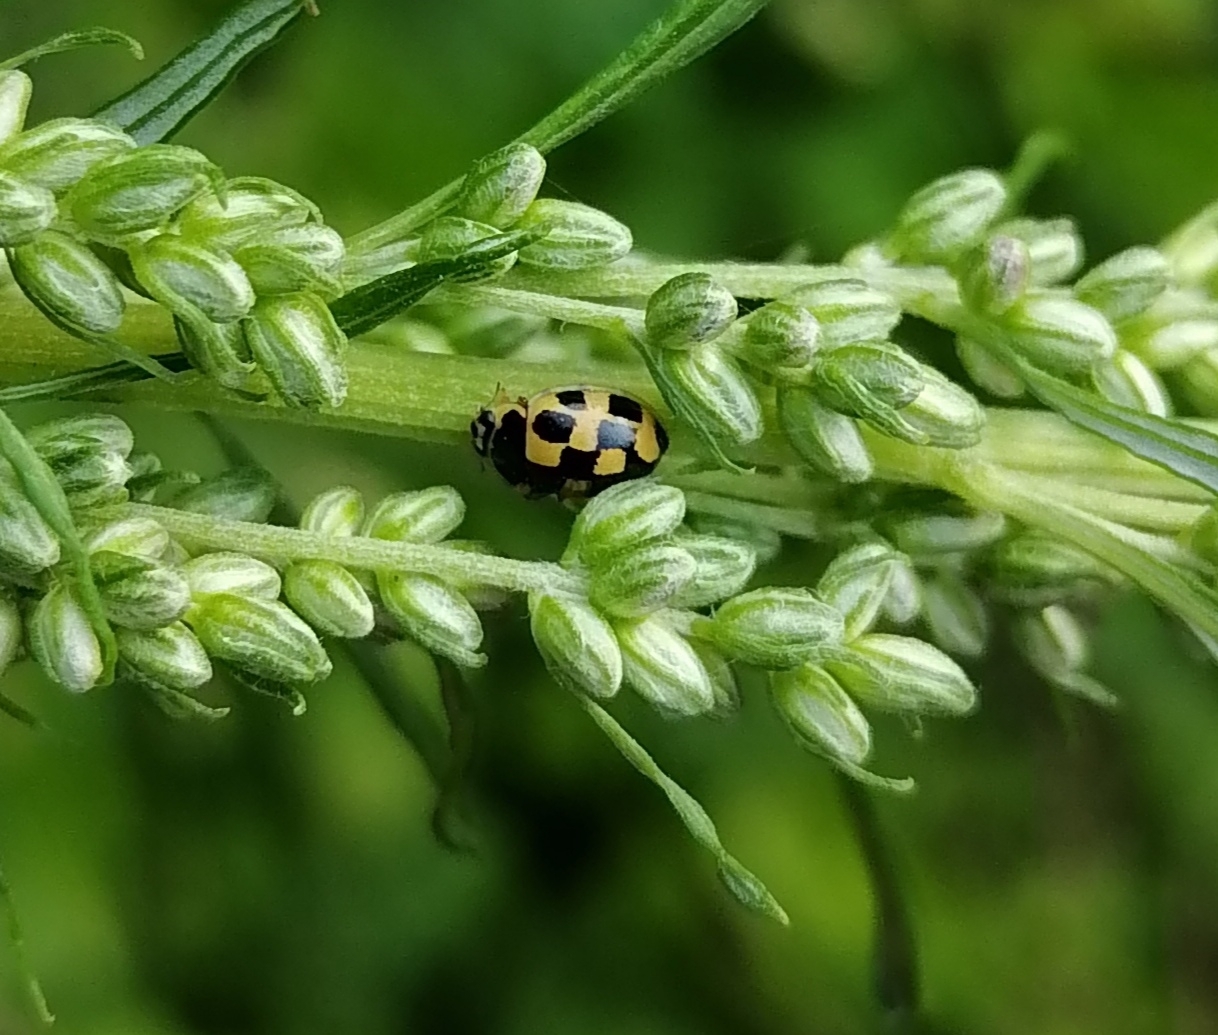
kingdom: Animalia
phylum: Arthropoda
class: Insecta
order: Coleoptera
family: Coccinellidae
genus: Propylaea
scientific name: Propylaea quatuordecimpunctata
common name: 14-spotted ladybird beetle
